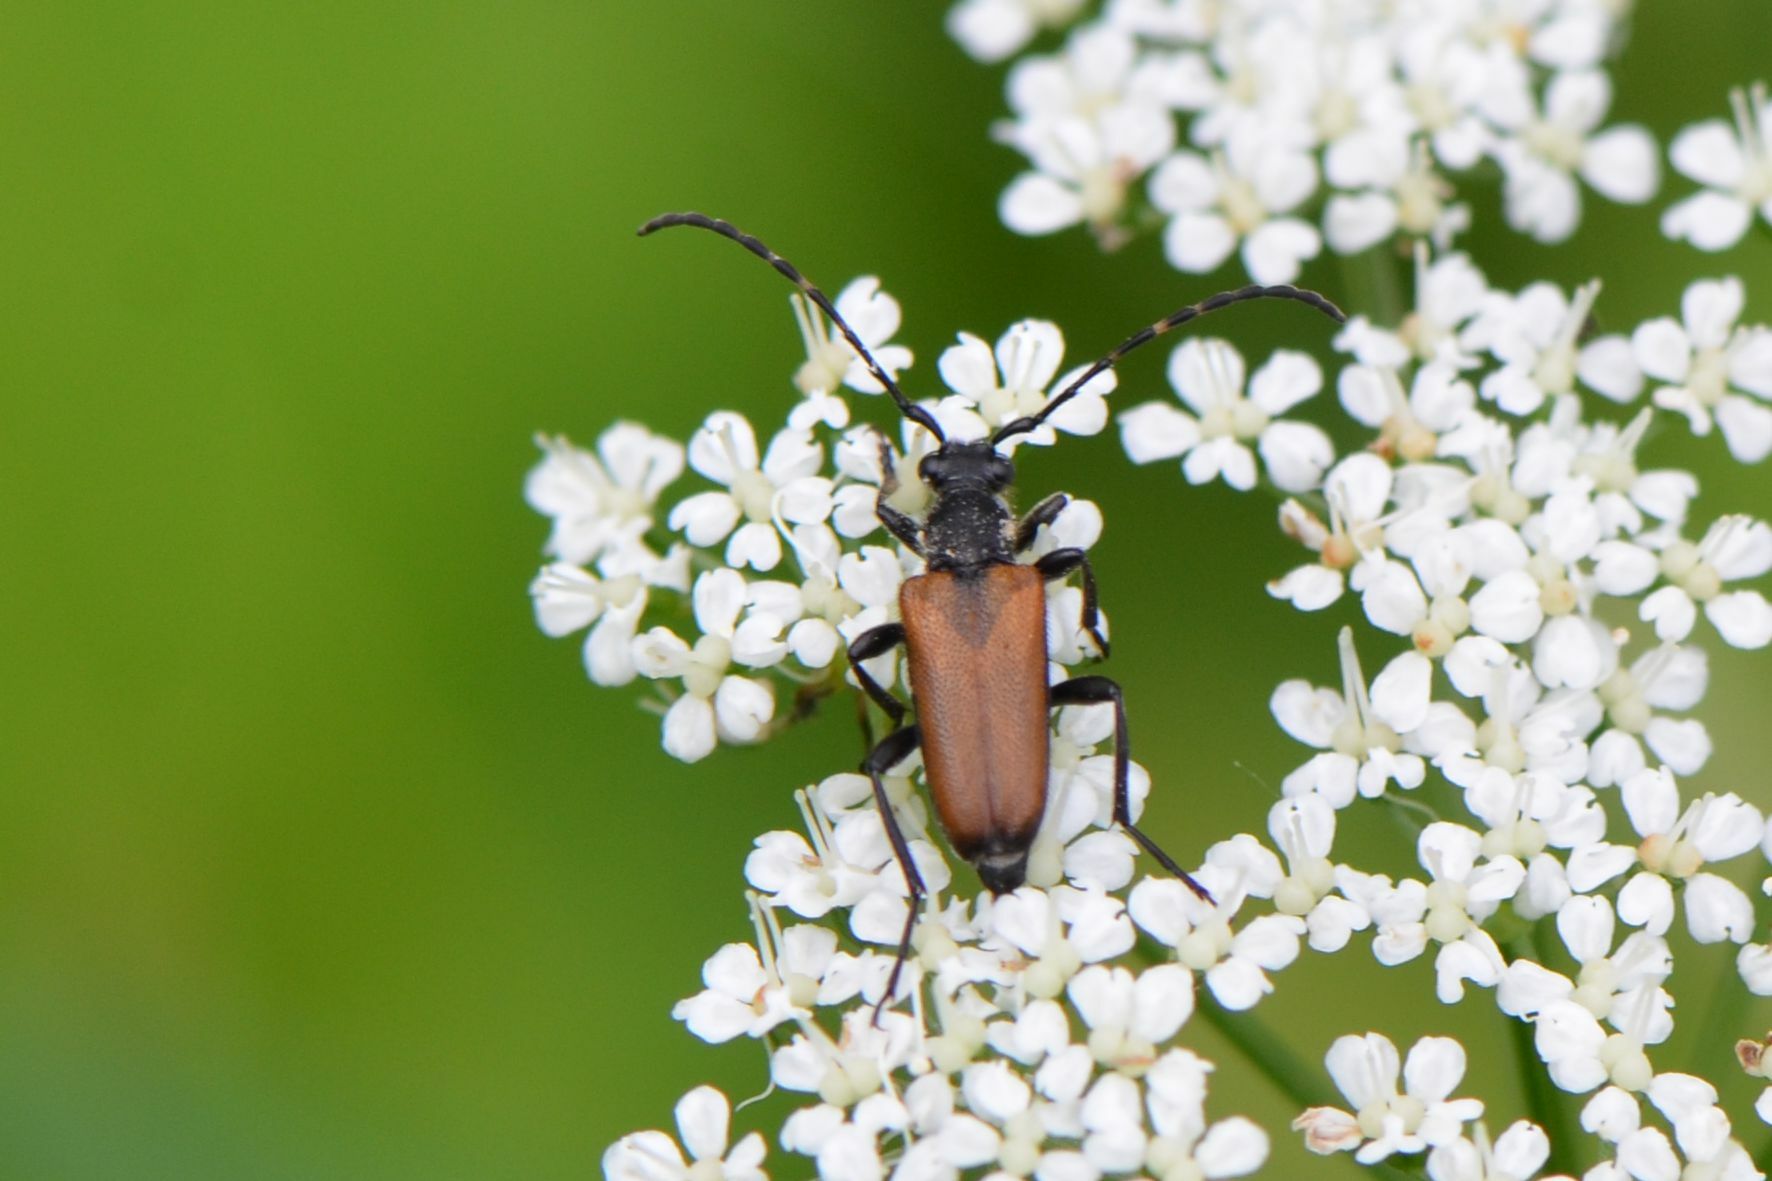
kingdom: Animalia
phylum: Arthropoda
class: Insecta
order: Coleoptera
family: Cerambycidae
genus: Paracorymbia
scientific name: Paracorymbia maculicornis
